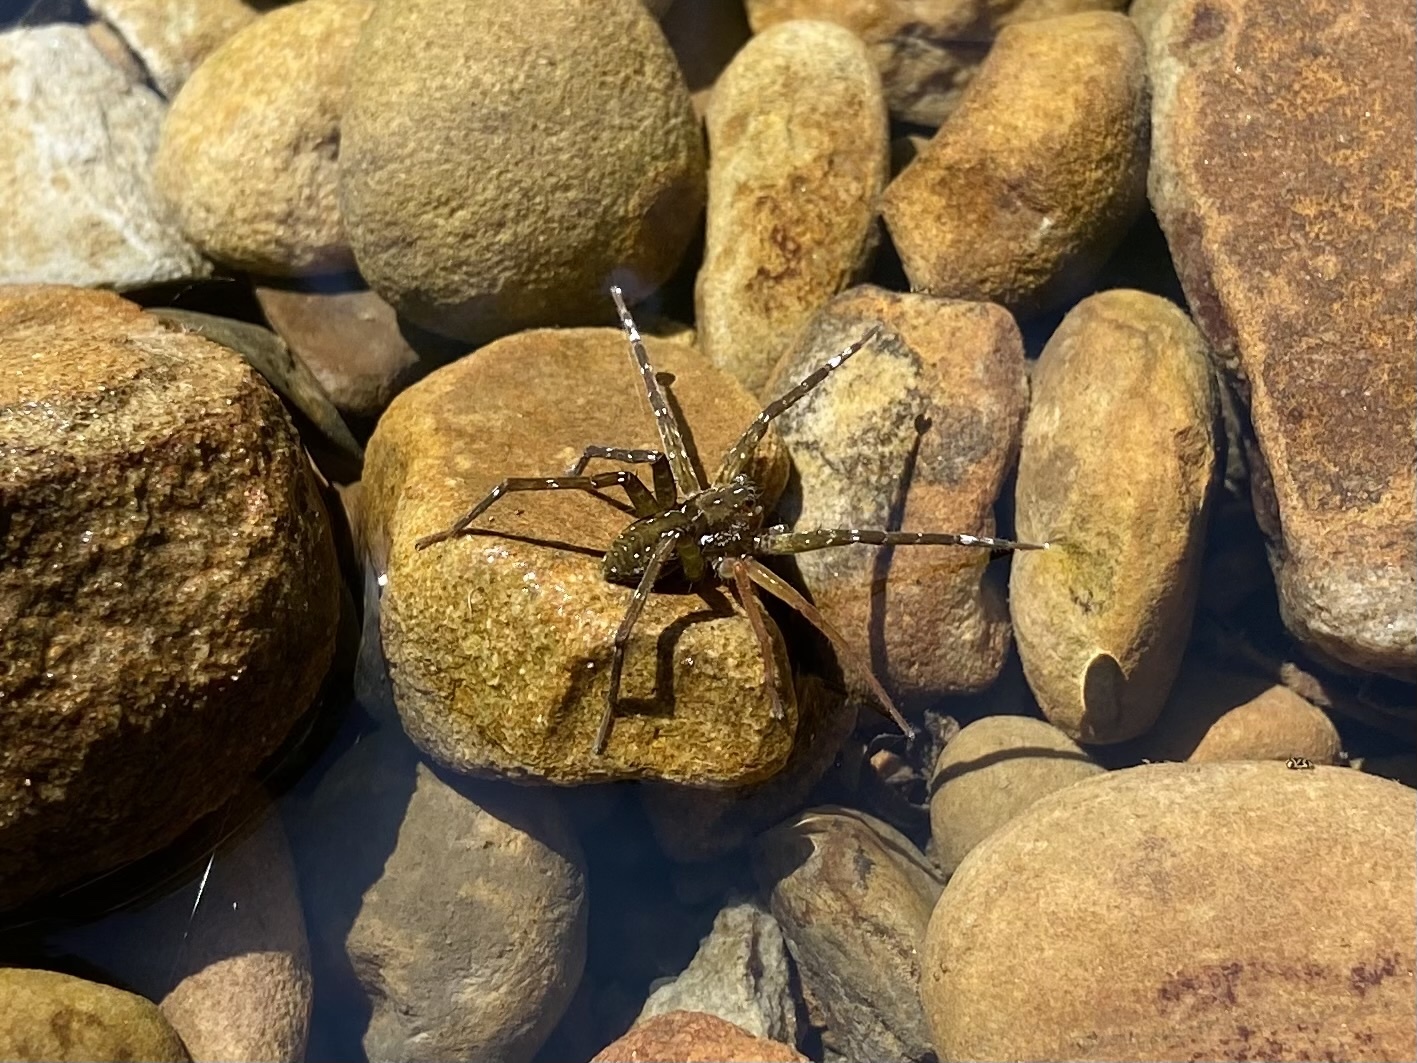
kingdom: Animalia
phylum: Arthropoda
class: Arachnida
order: Araneae
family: Pisauridae
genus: Dolomedes
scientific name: Dolomedes raptor
